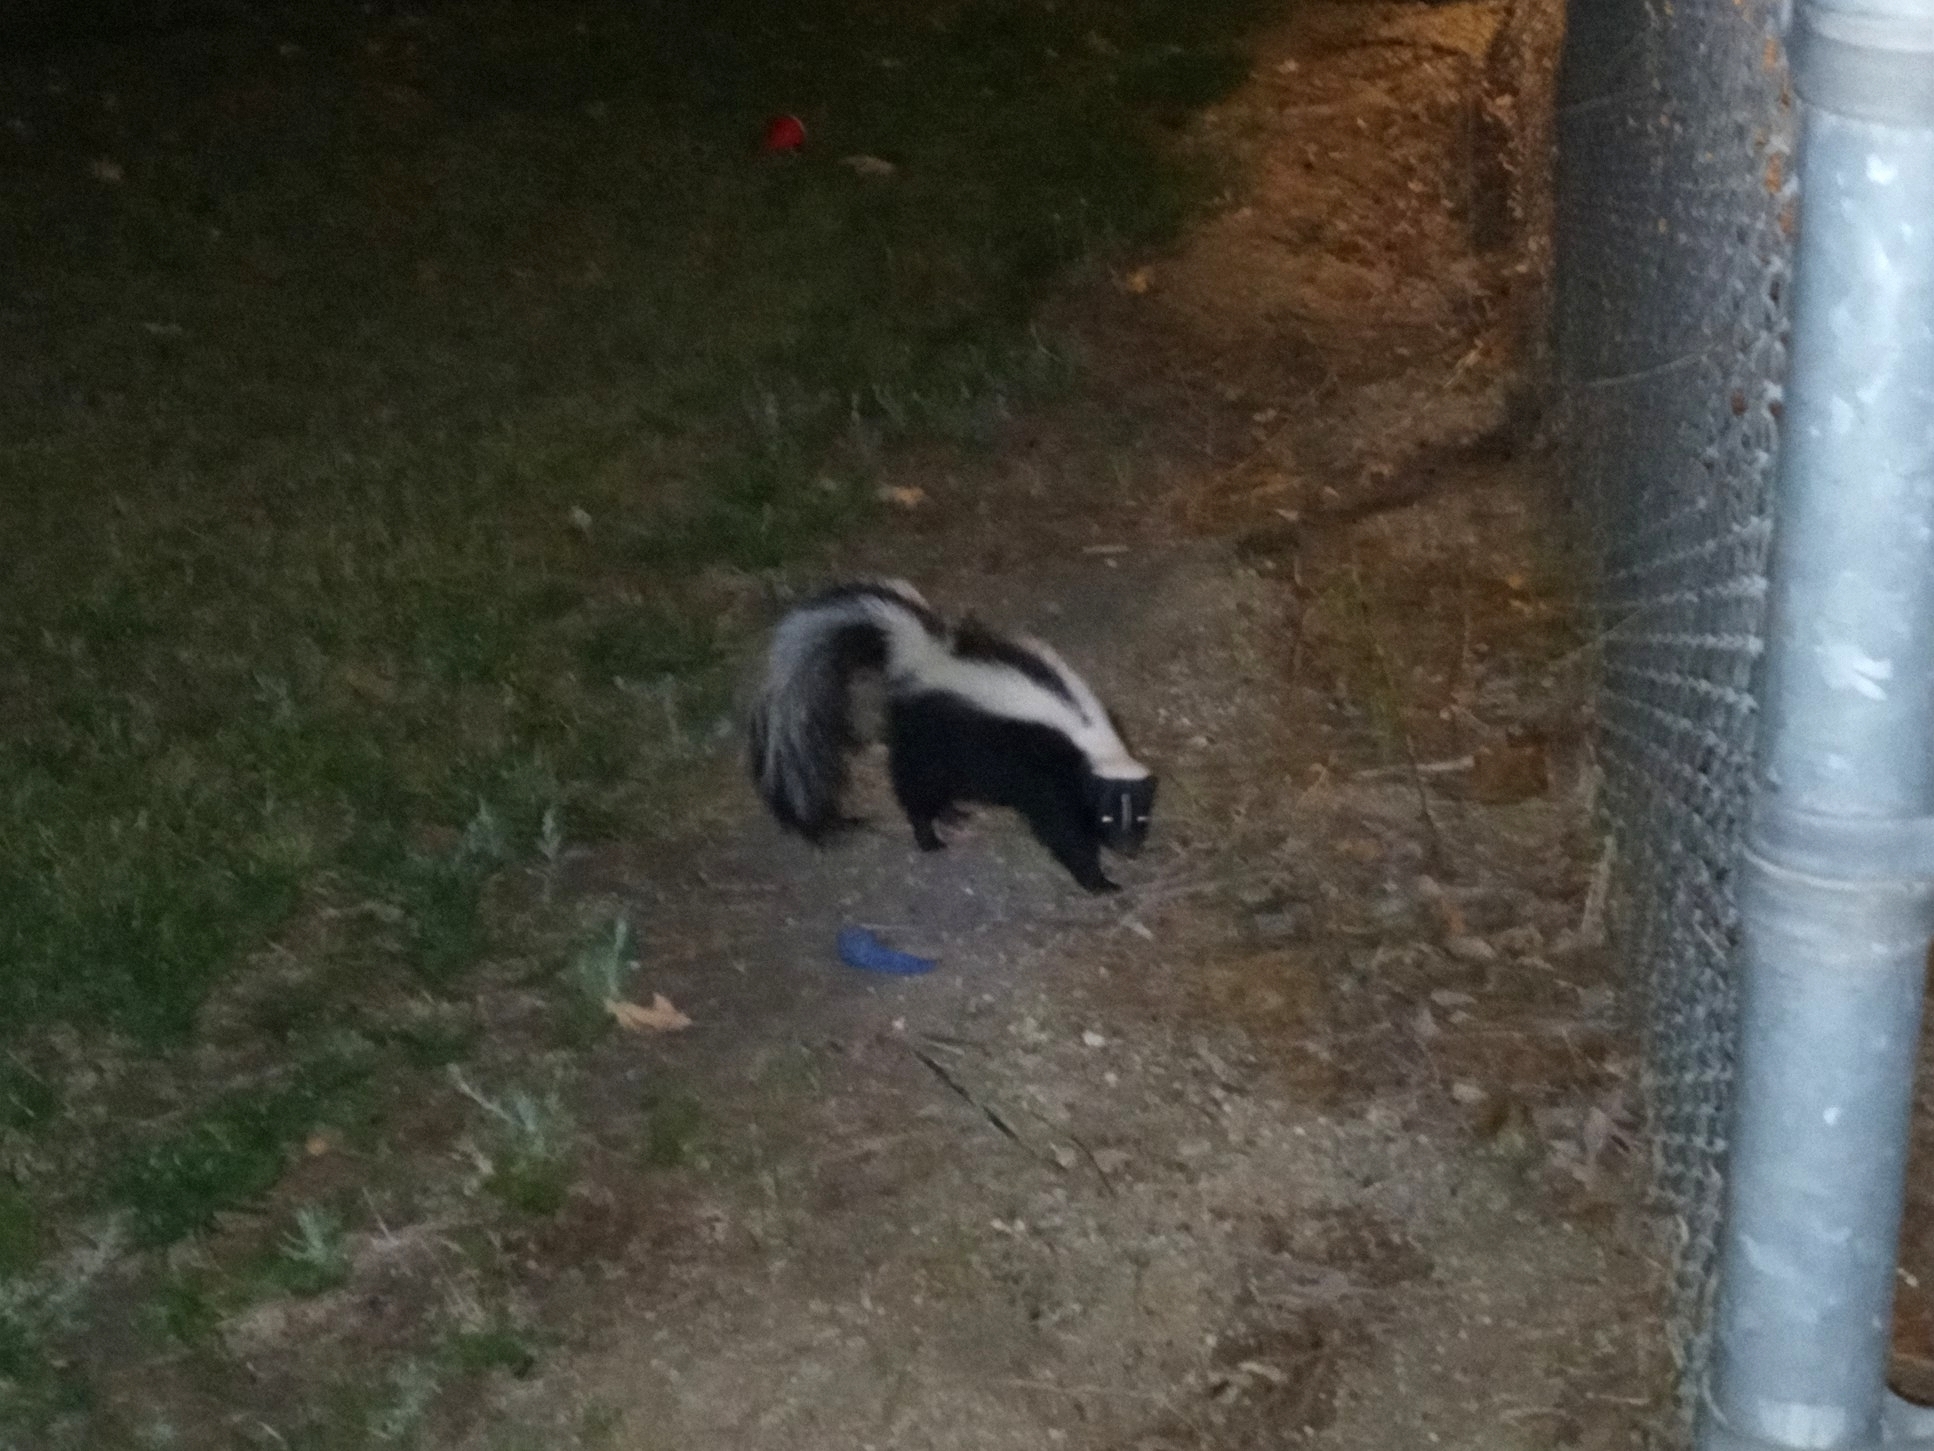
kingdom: Animalia
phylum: Chordata
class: Mammalia
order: Carnivora
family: Mephitidae
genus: Mephitis
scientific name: Mephitis mephitis
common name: Striped skunk
